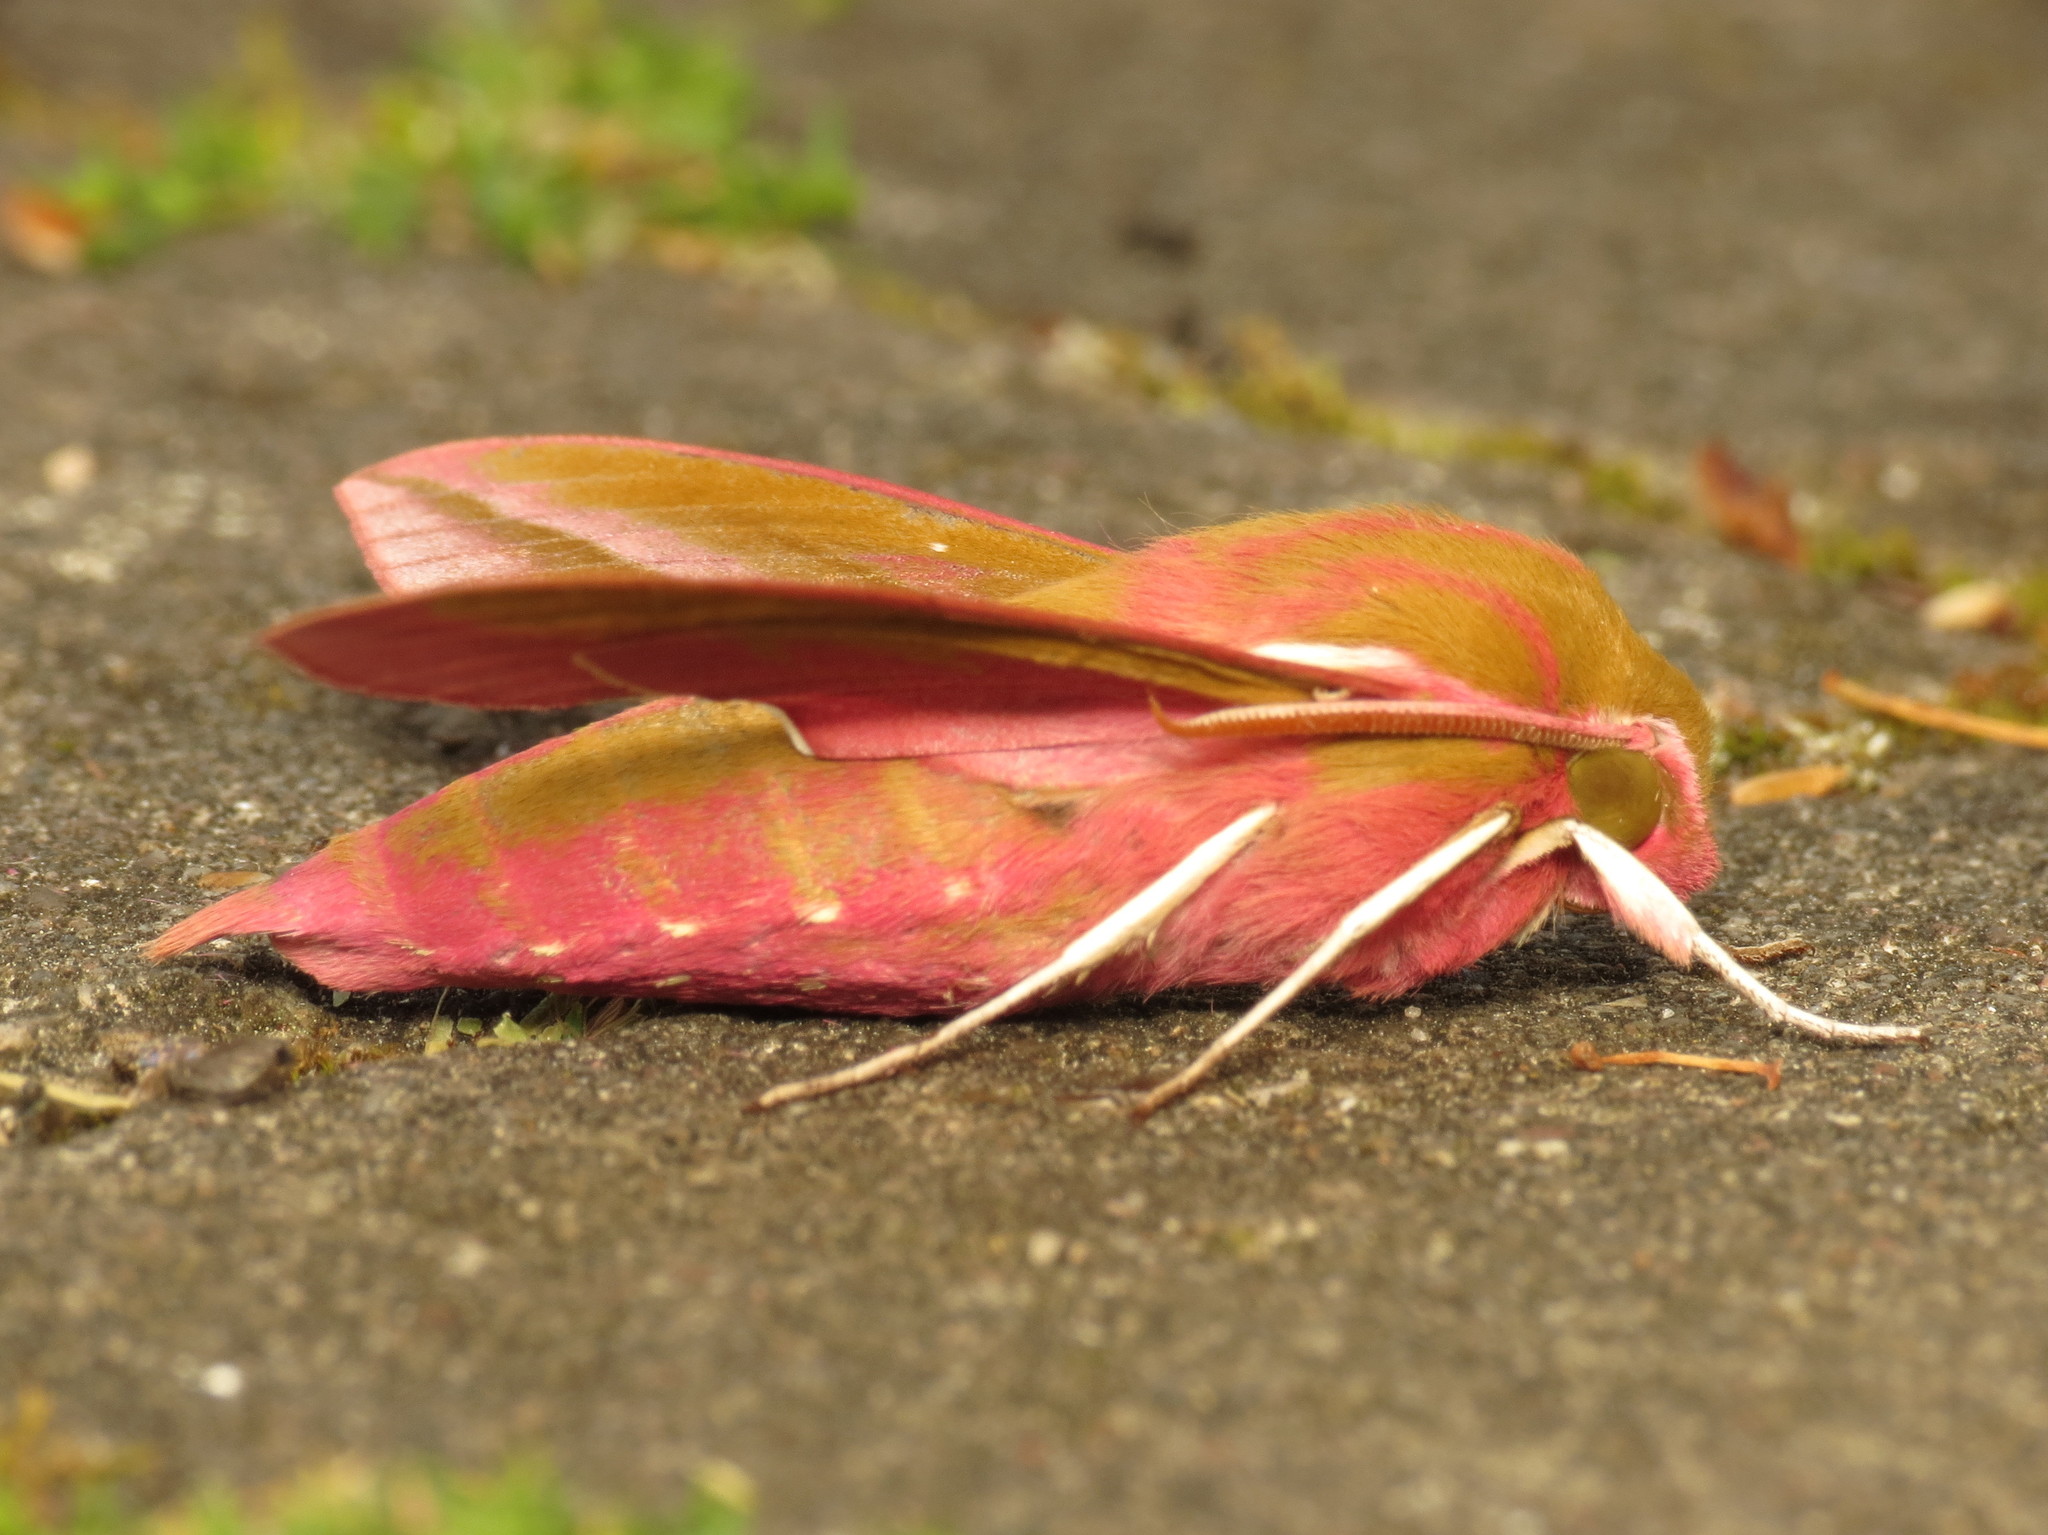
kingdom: Animalia
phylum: Arthropoda
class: Insecta
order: Lepidoptera
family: Sphingidae
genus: Deilephila
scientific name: Deilephila elpenor
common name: Elephant hawk-moth
